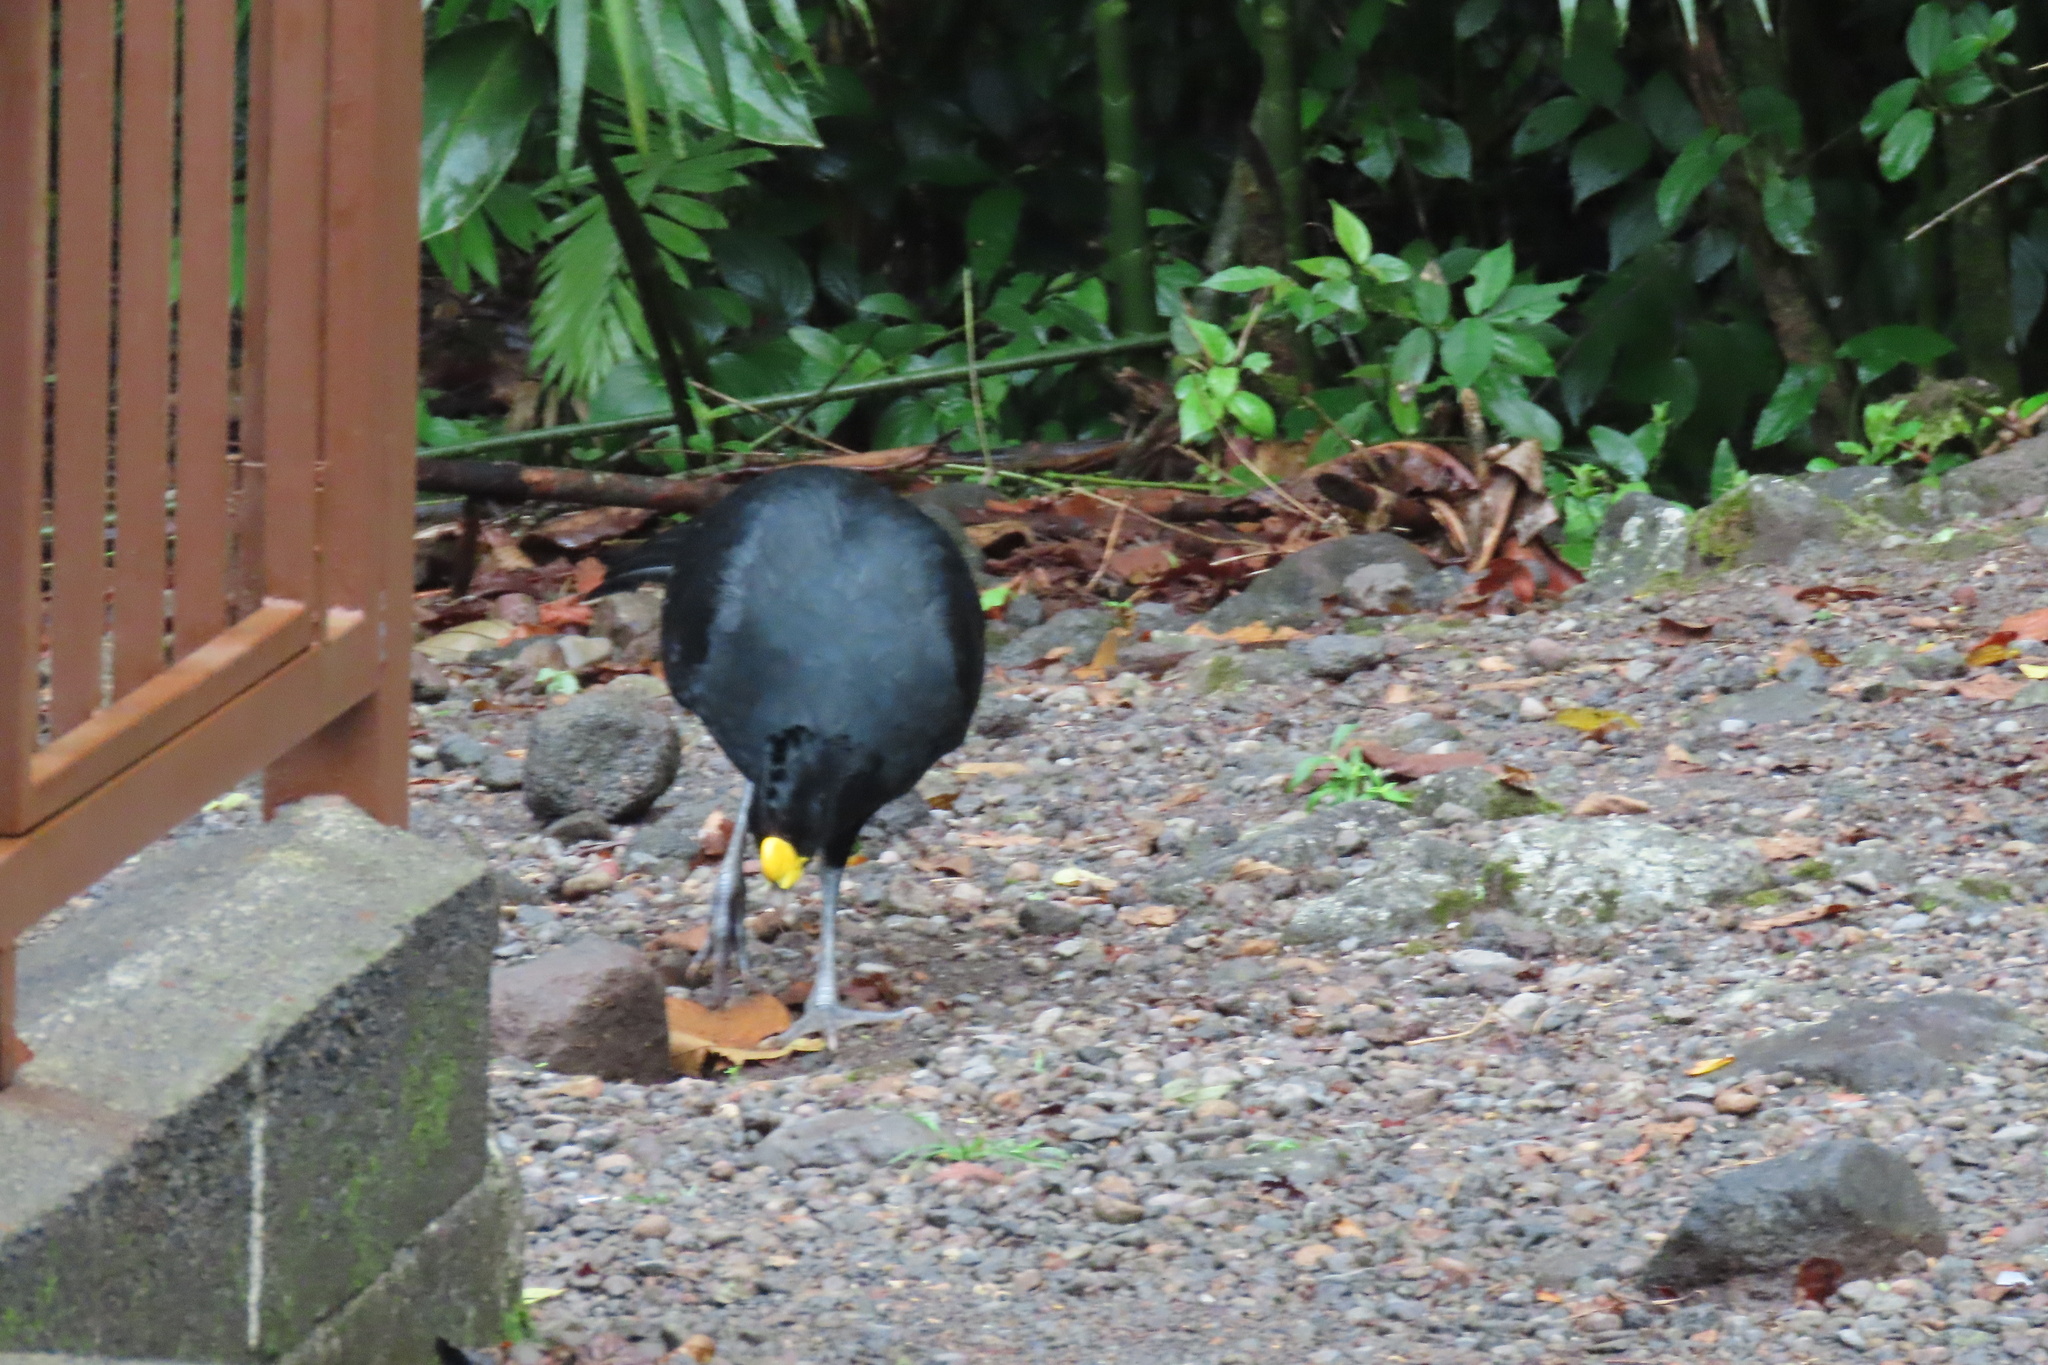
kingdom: Animalia
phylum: Chordata
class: Aves
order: Galliformes
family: Cracidae
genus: Crax
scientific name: Crax rubra
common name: Great curassow
